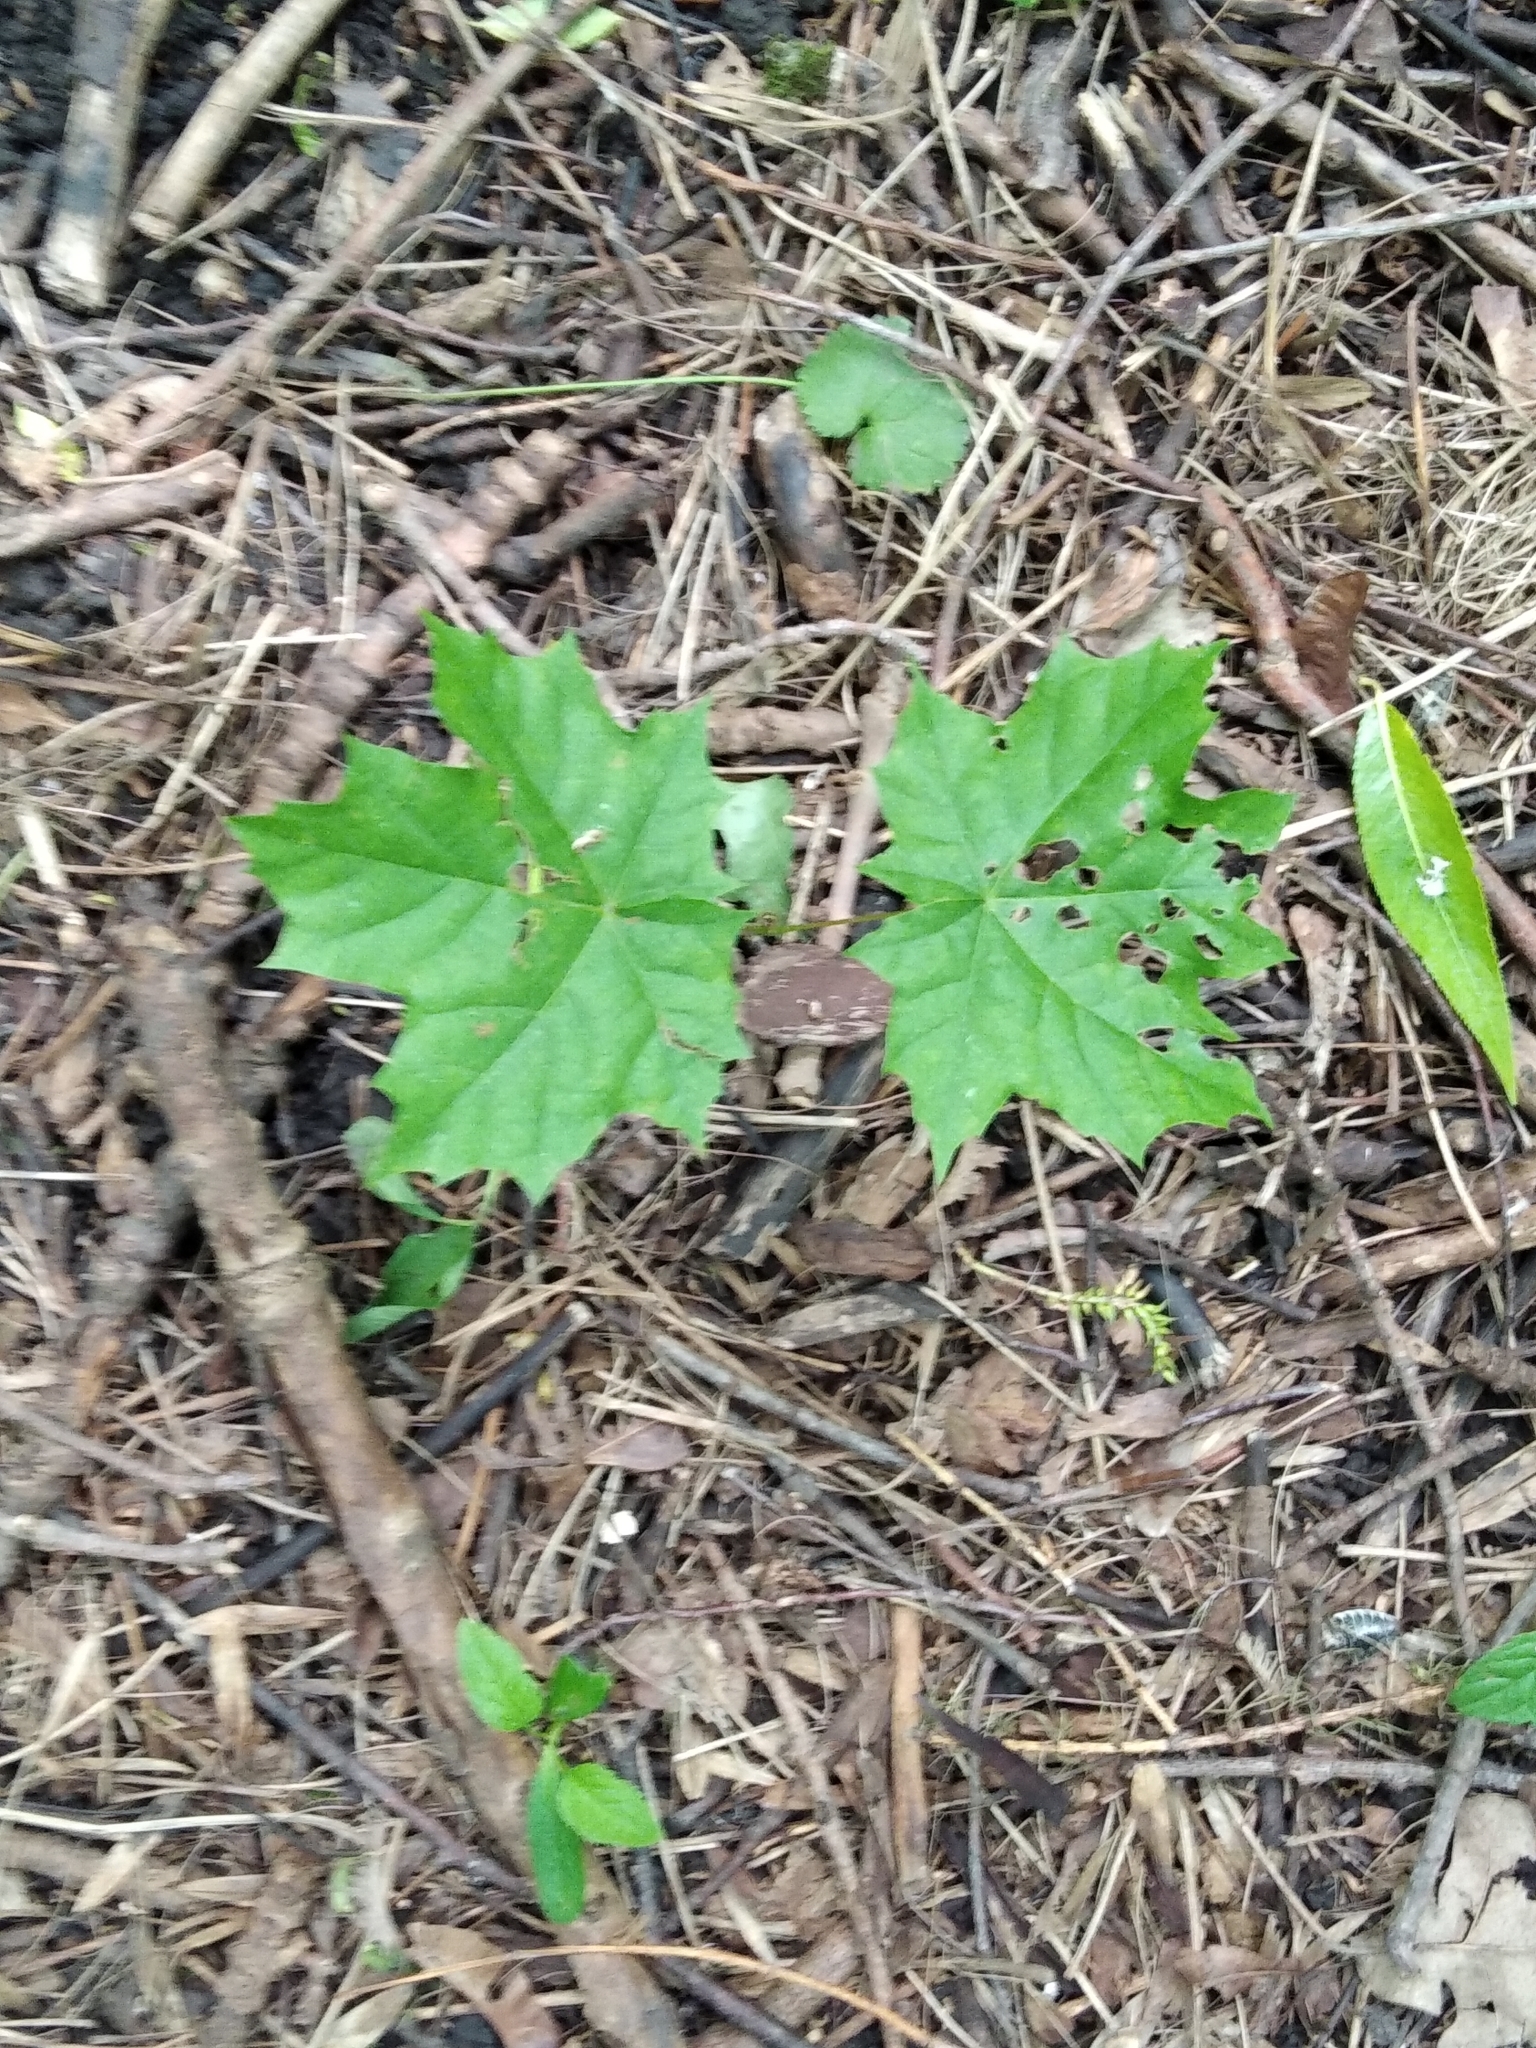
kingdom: Plantae
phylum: Tracheophyta
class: Magnoliopsida
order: Sapindales
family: Sapindaceae
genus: Acer
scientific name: Acer platanoides
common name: Norway maple
